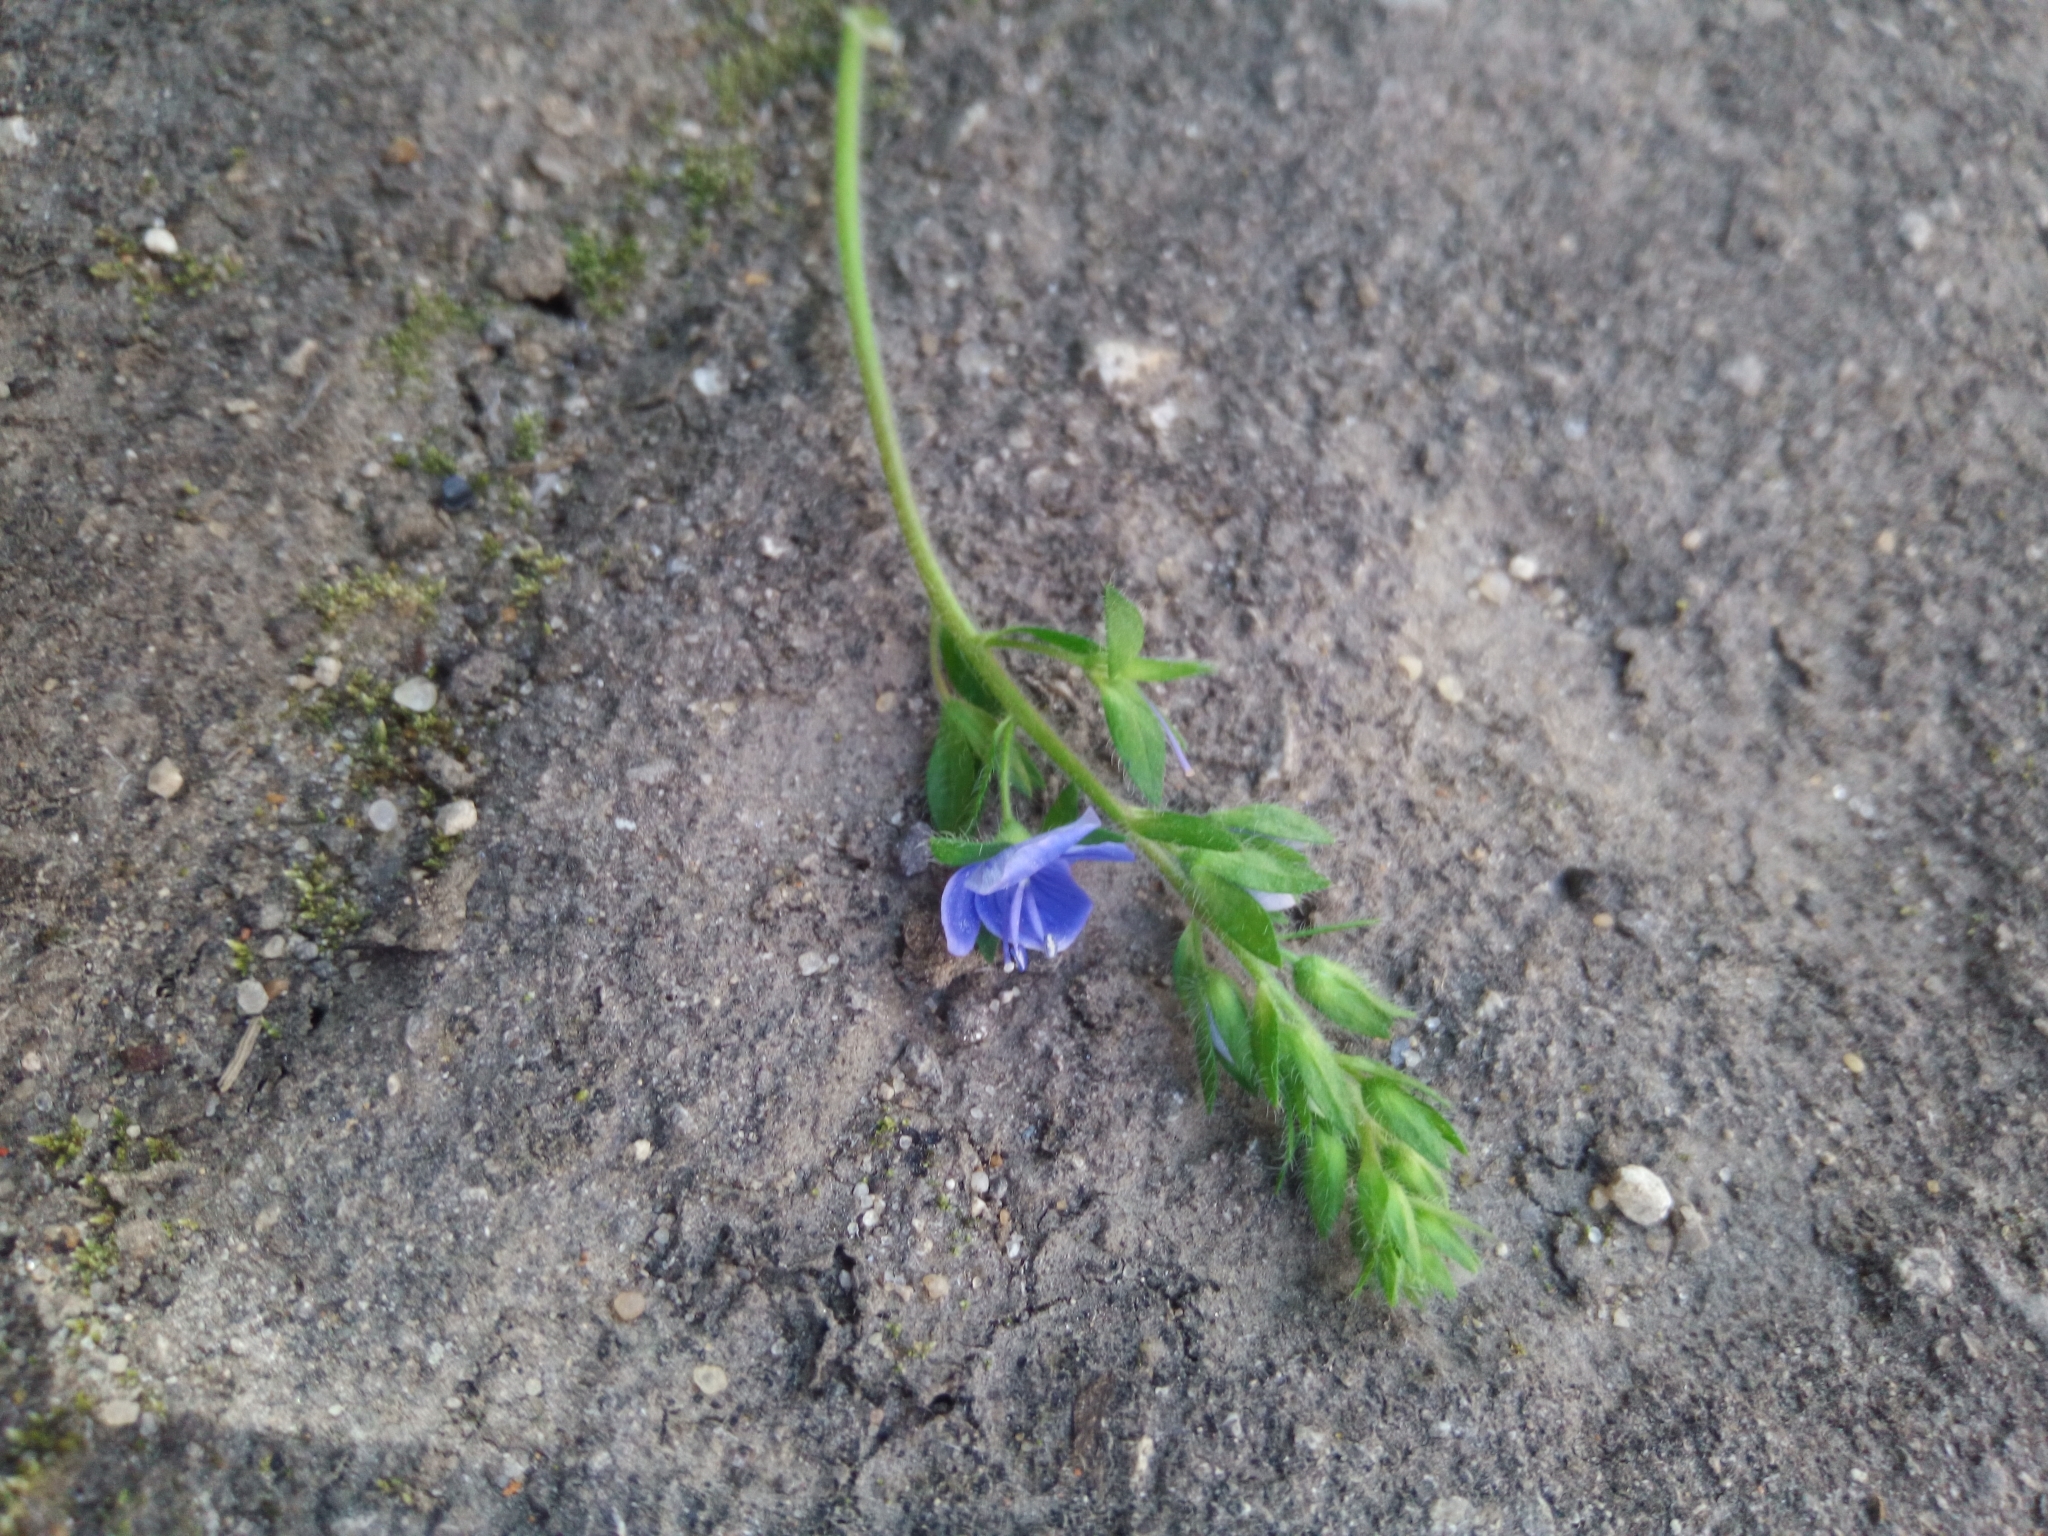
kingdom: Plantae
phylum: Tracheophyta
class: Magnoliopsida
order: Lamiales
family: Plantaginaceae
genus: Veronica
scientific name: Veronica chamaedrys
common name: Germander speedwell
